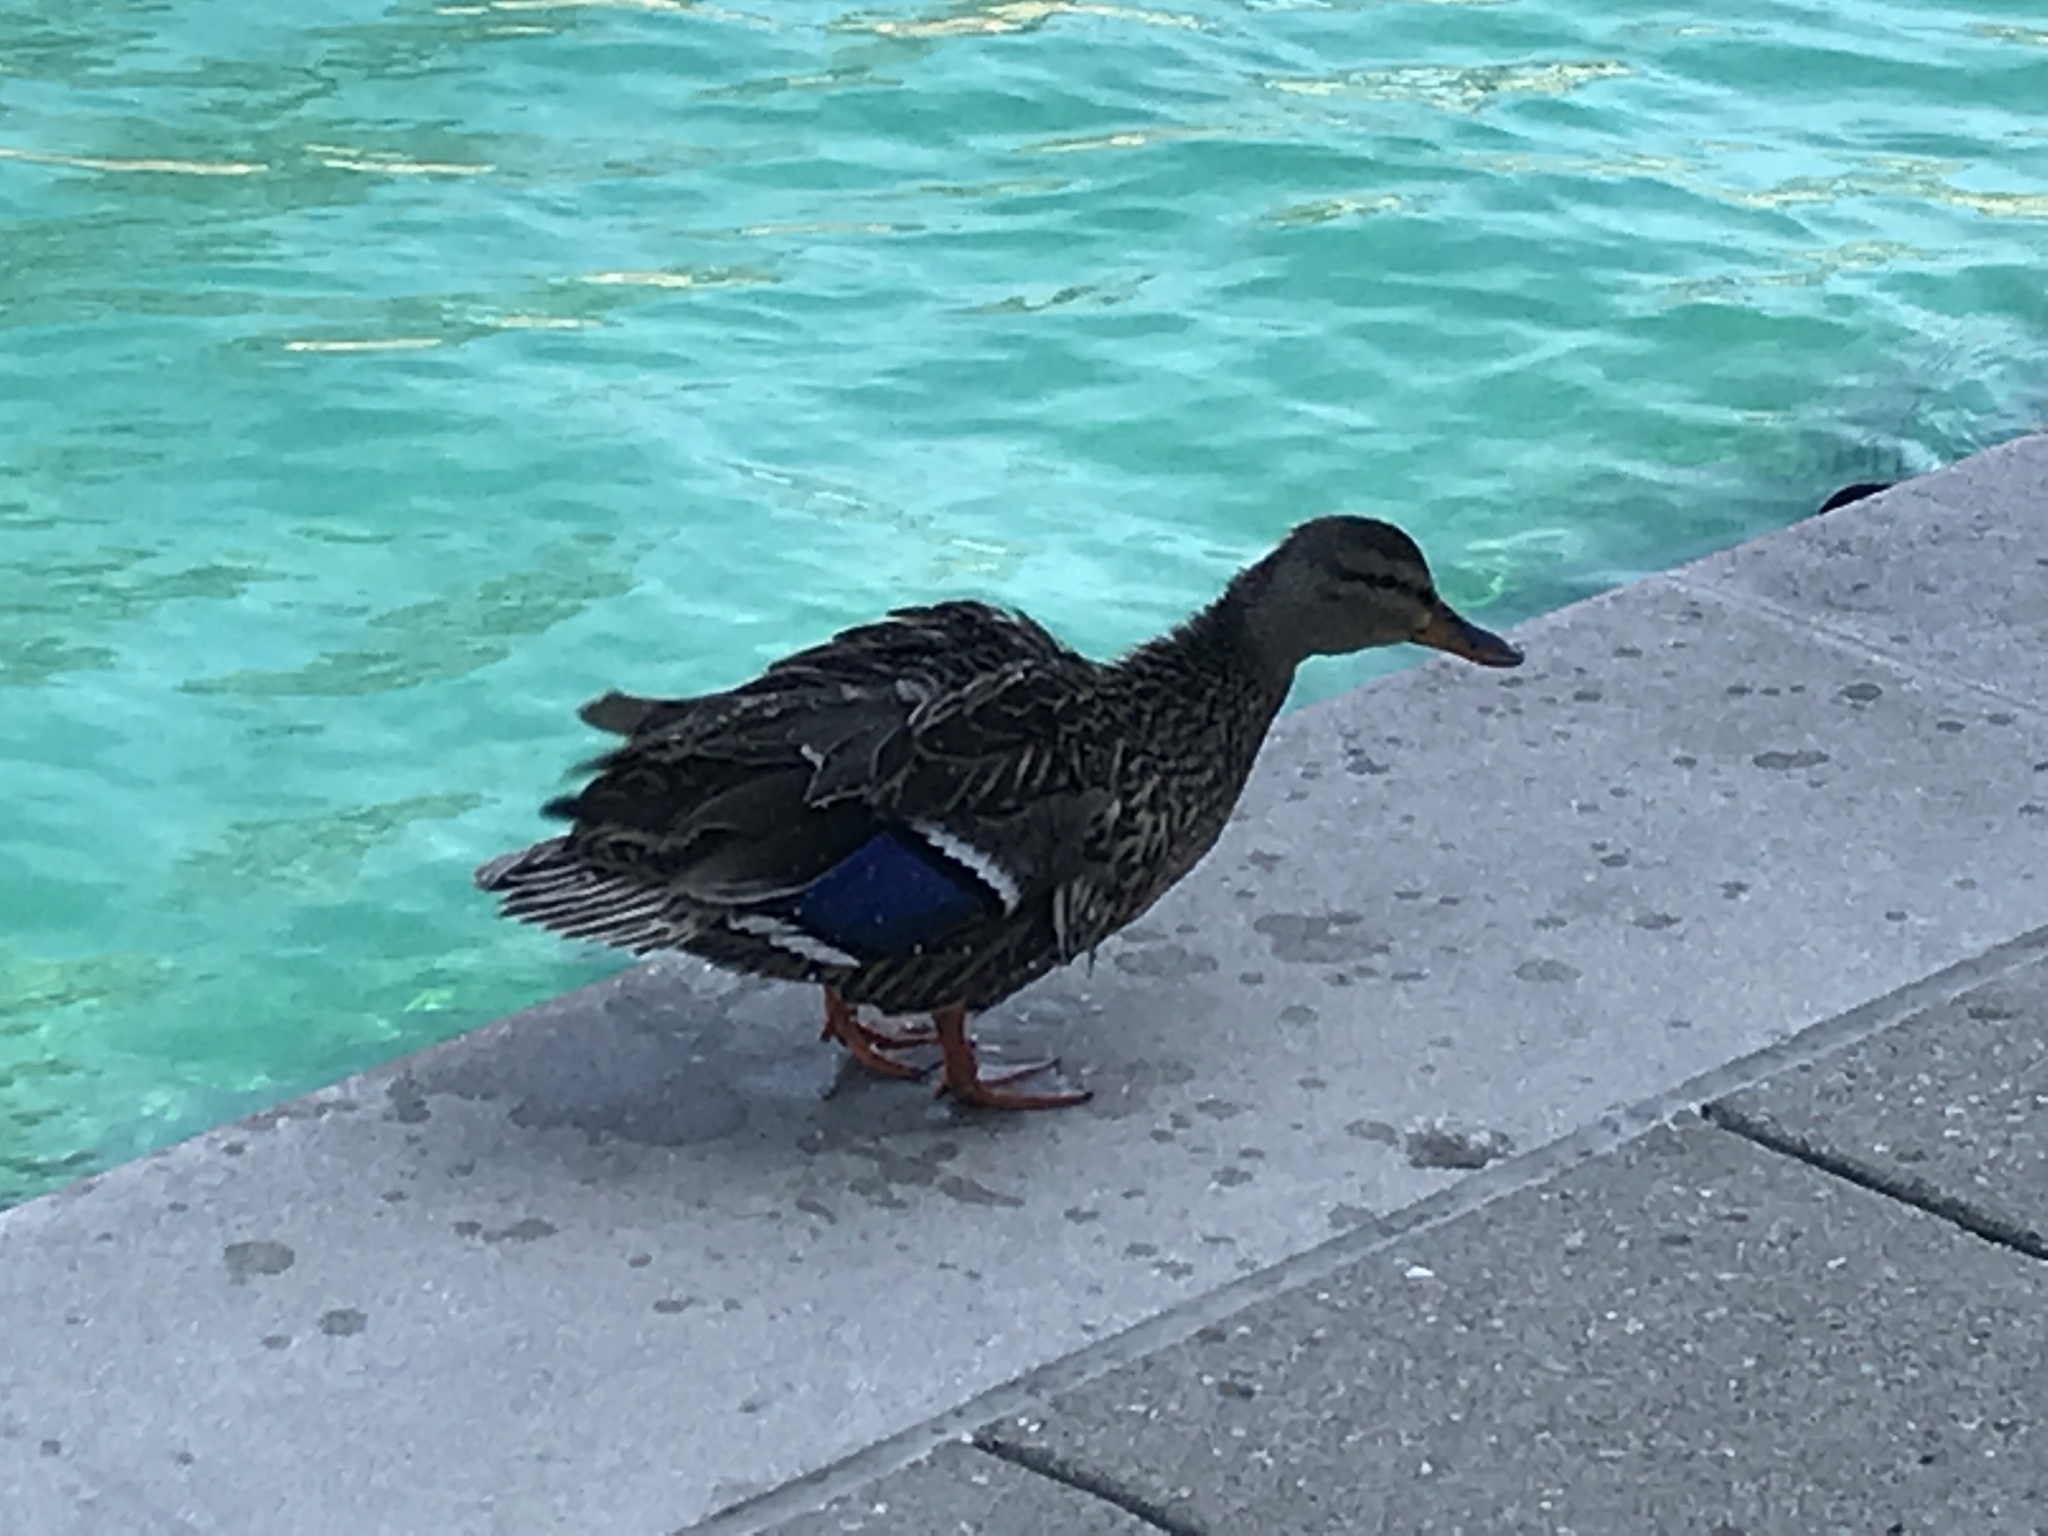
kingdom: Animalia
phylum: Chordata
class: Aves
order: Anseriformes
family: Anatidae
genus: Anas
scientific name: Anas platyrhynchos
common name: Mallard
